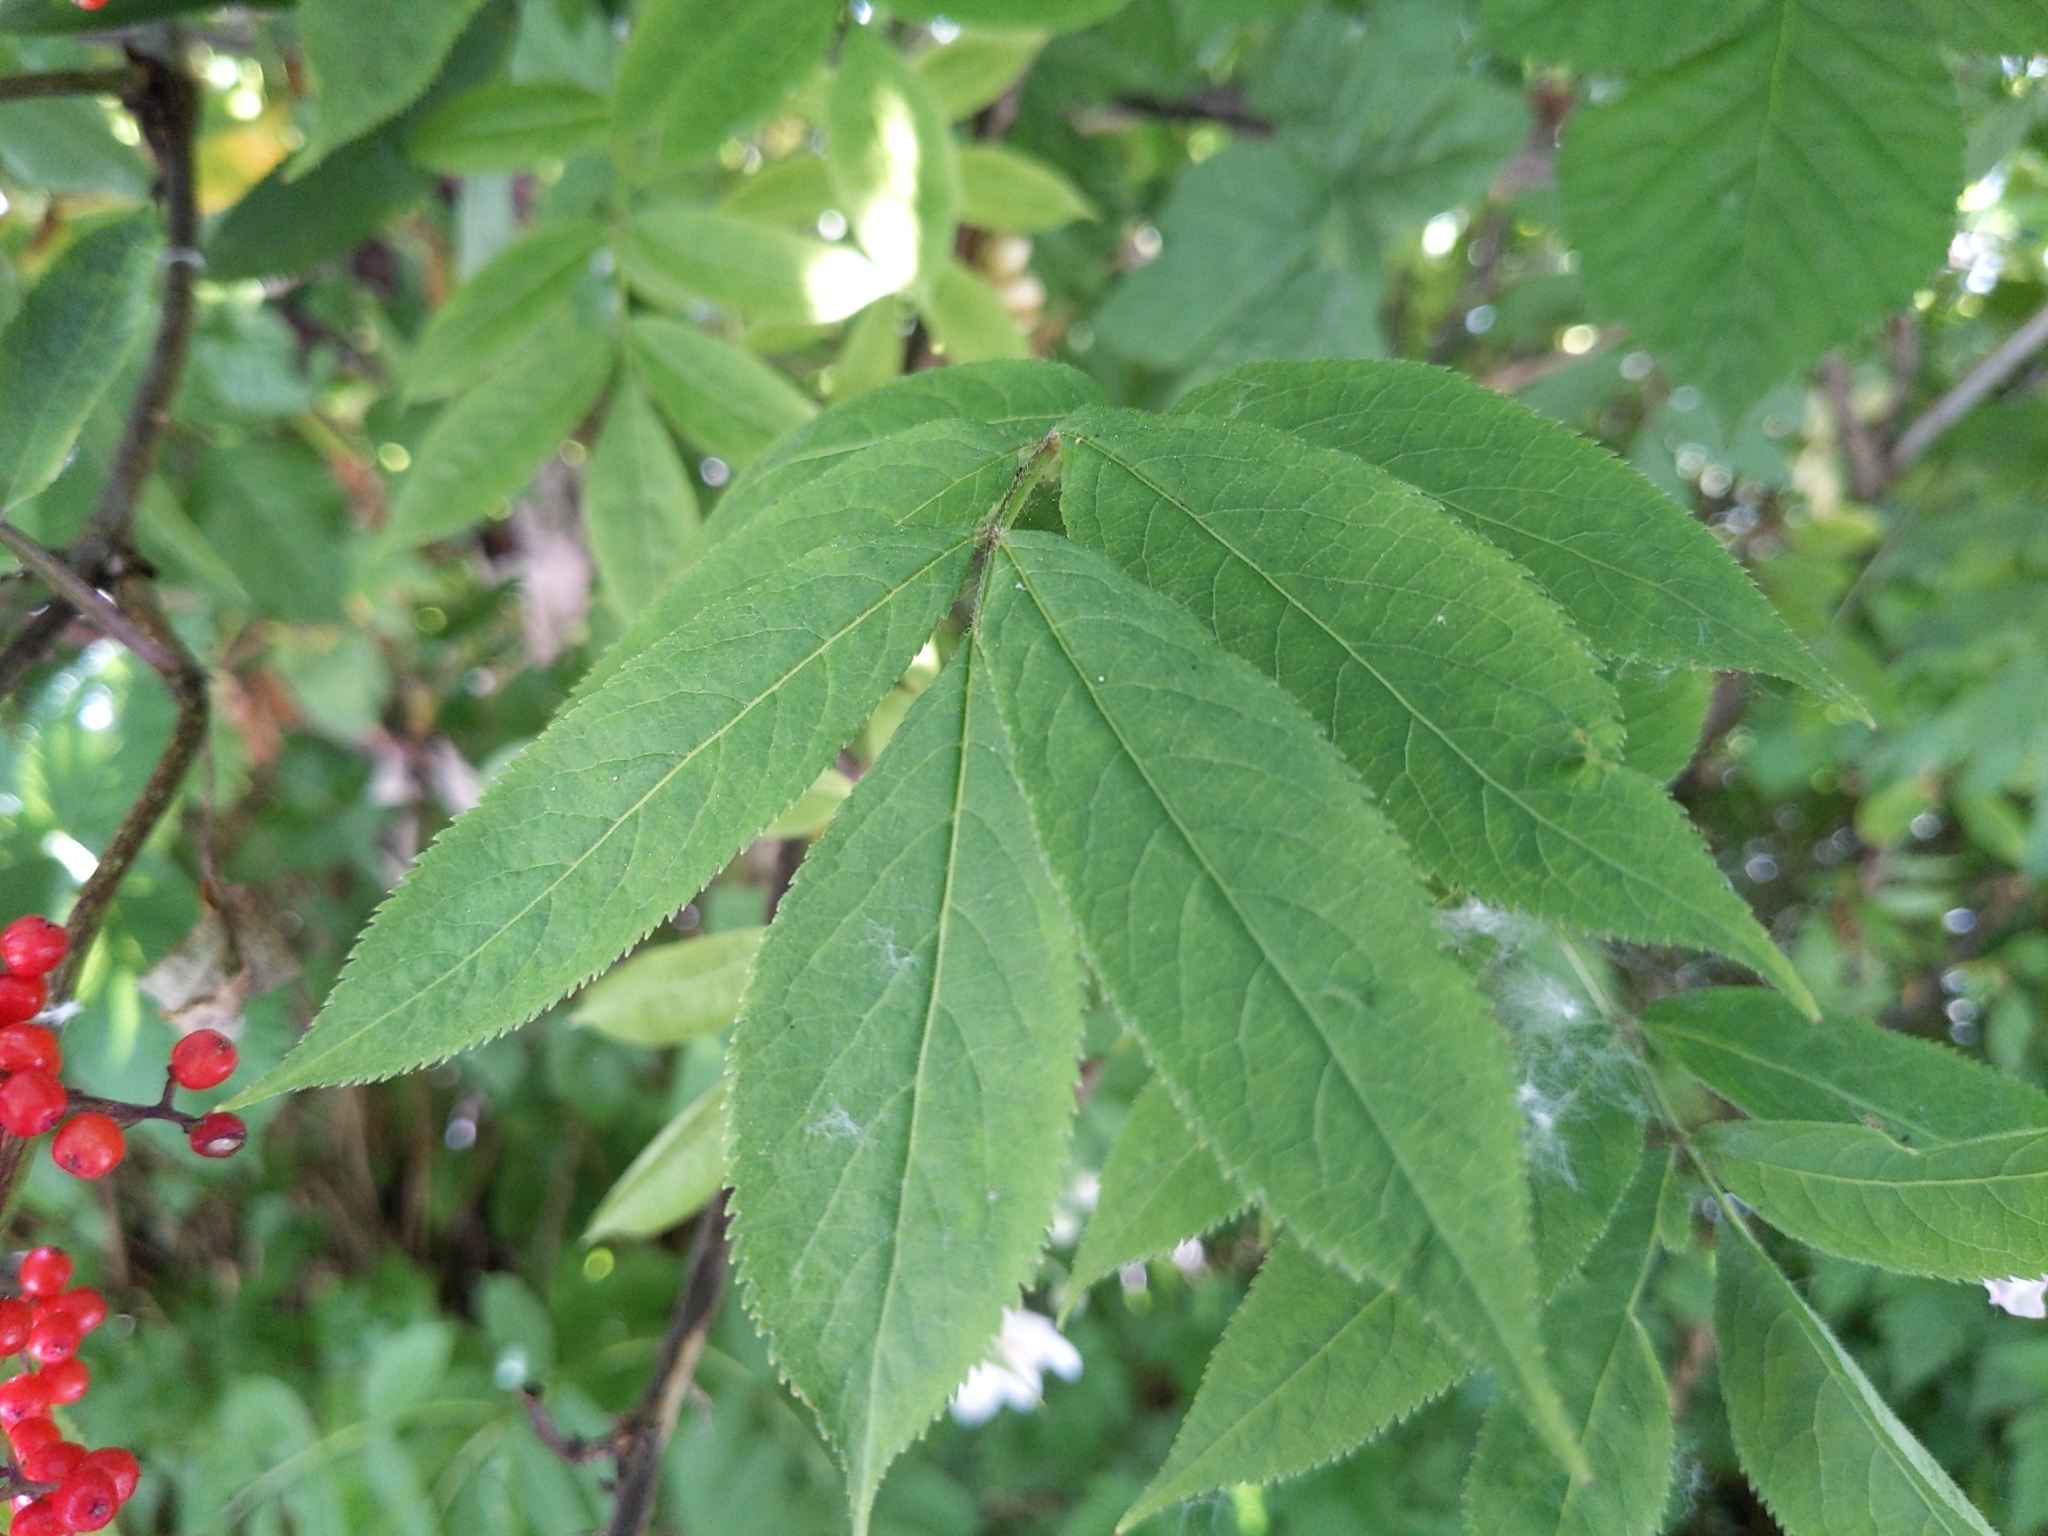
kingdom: Plantae
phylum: Tracheophyta
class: Magnoliopsida
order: Dipsacales
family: Viburnaceae
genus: Sambucus
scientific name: Sambucus racemosa
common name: Red-berried elder
